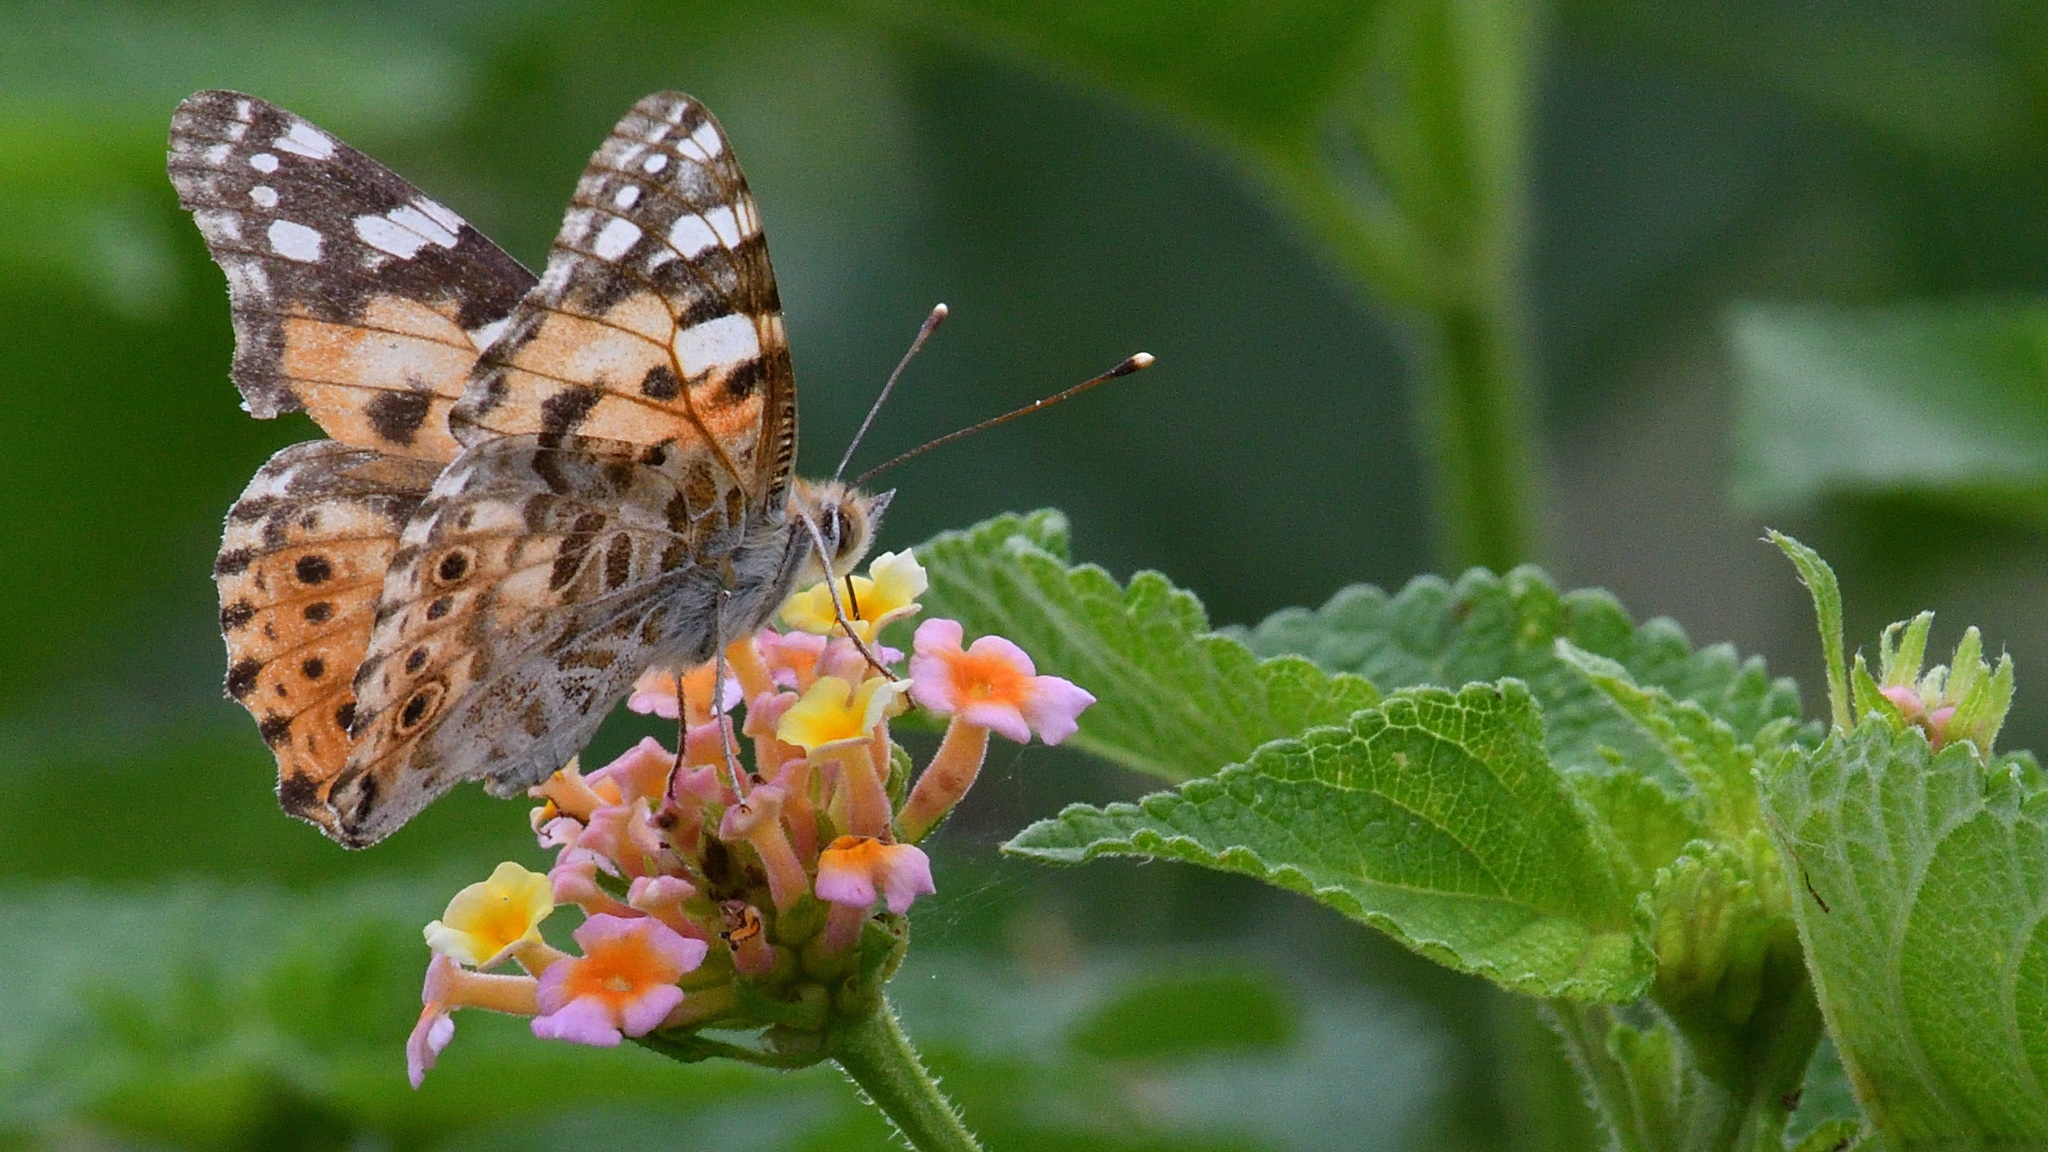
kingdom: Animalia
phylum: Arthropoda
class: Insecta
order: Lepidoptera
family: Nymphalidae
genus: Vanessa
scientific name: Vanessa cardui
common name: Painted lady
